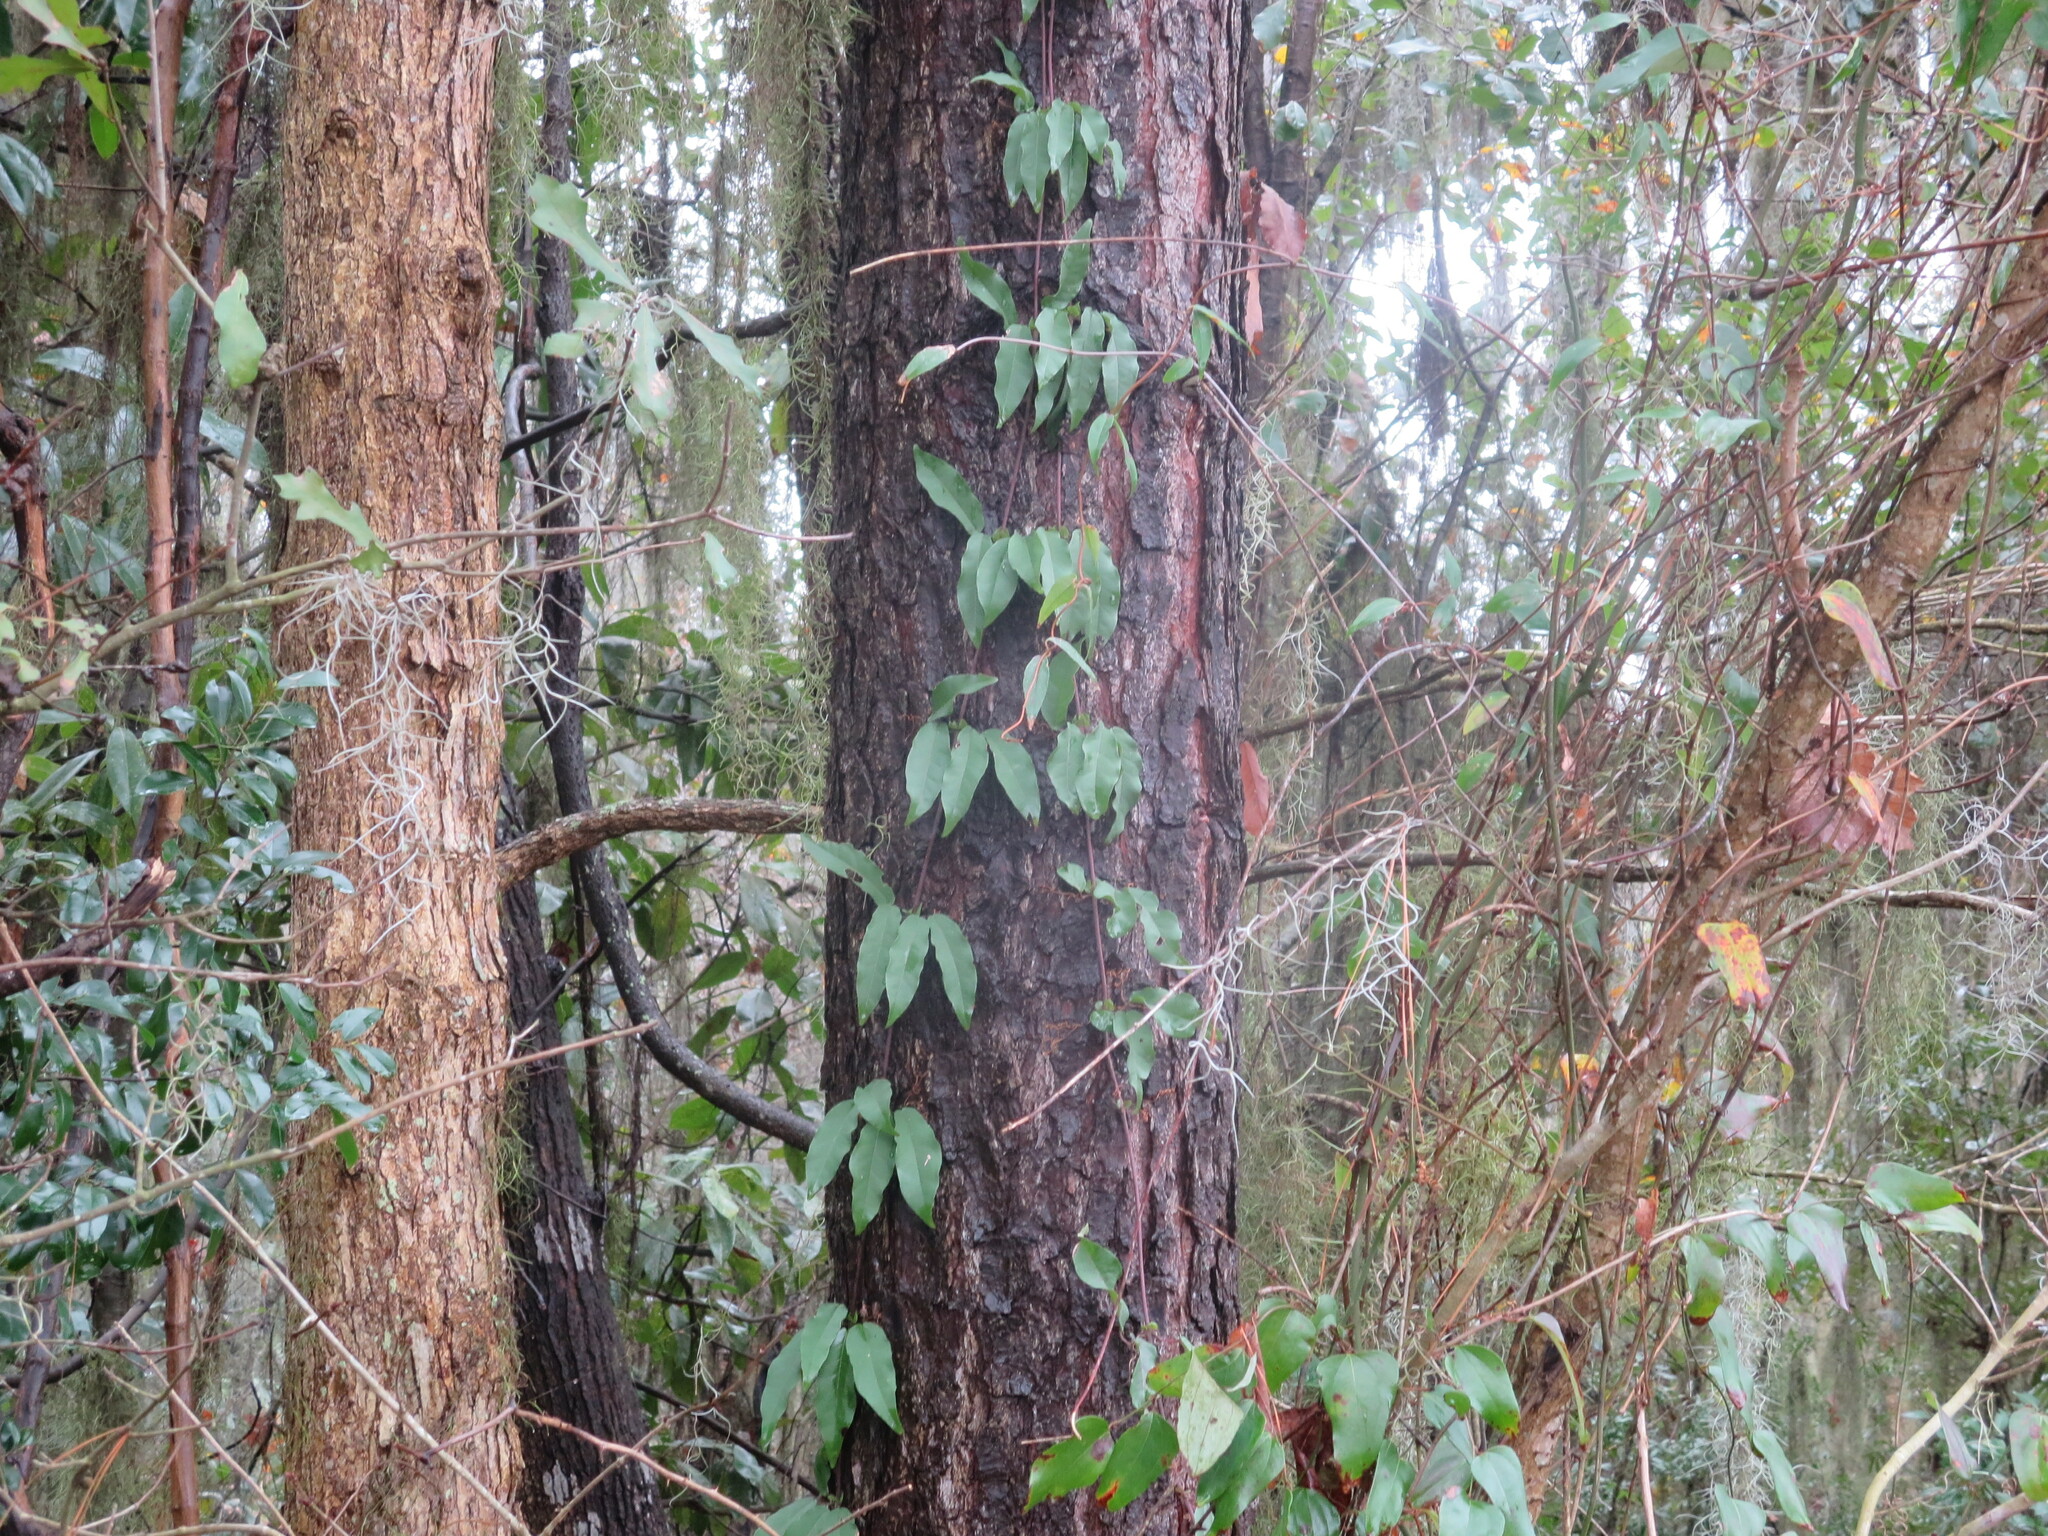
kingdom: Plantae
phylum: Tracheophyta
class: Magnoliopsida
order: Lamiales
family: Bignoniaceae
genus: Bignonia
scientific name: Bignonia capreolata
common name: Crossvine
